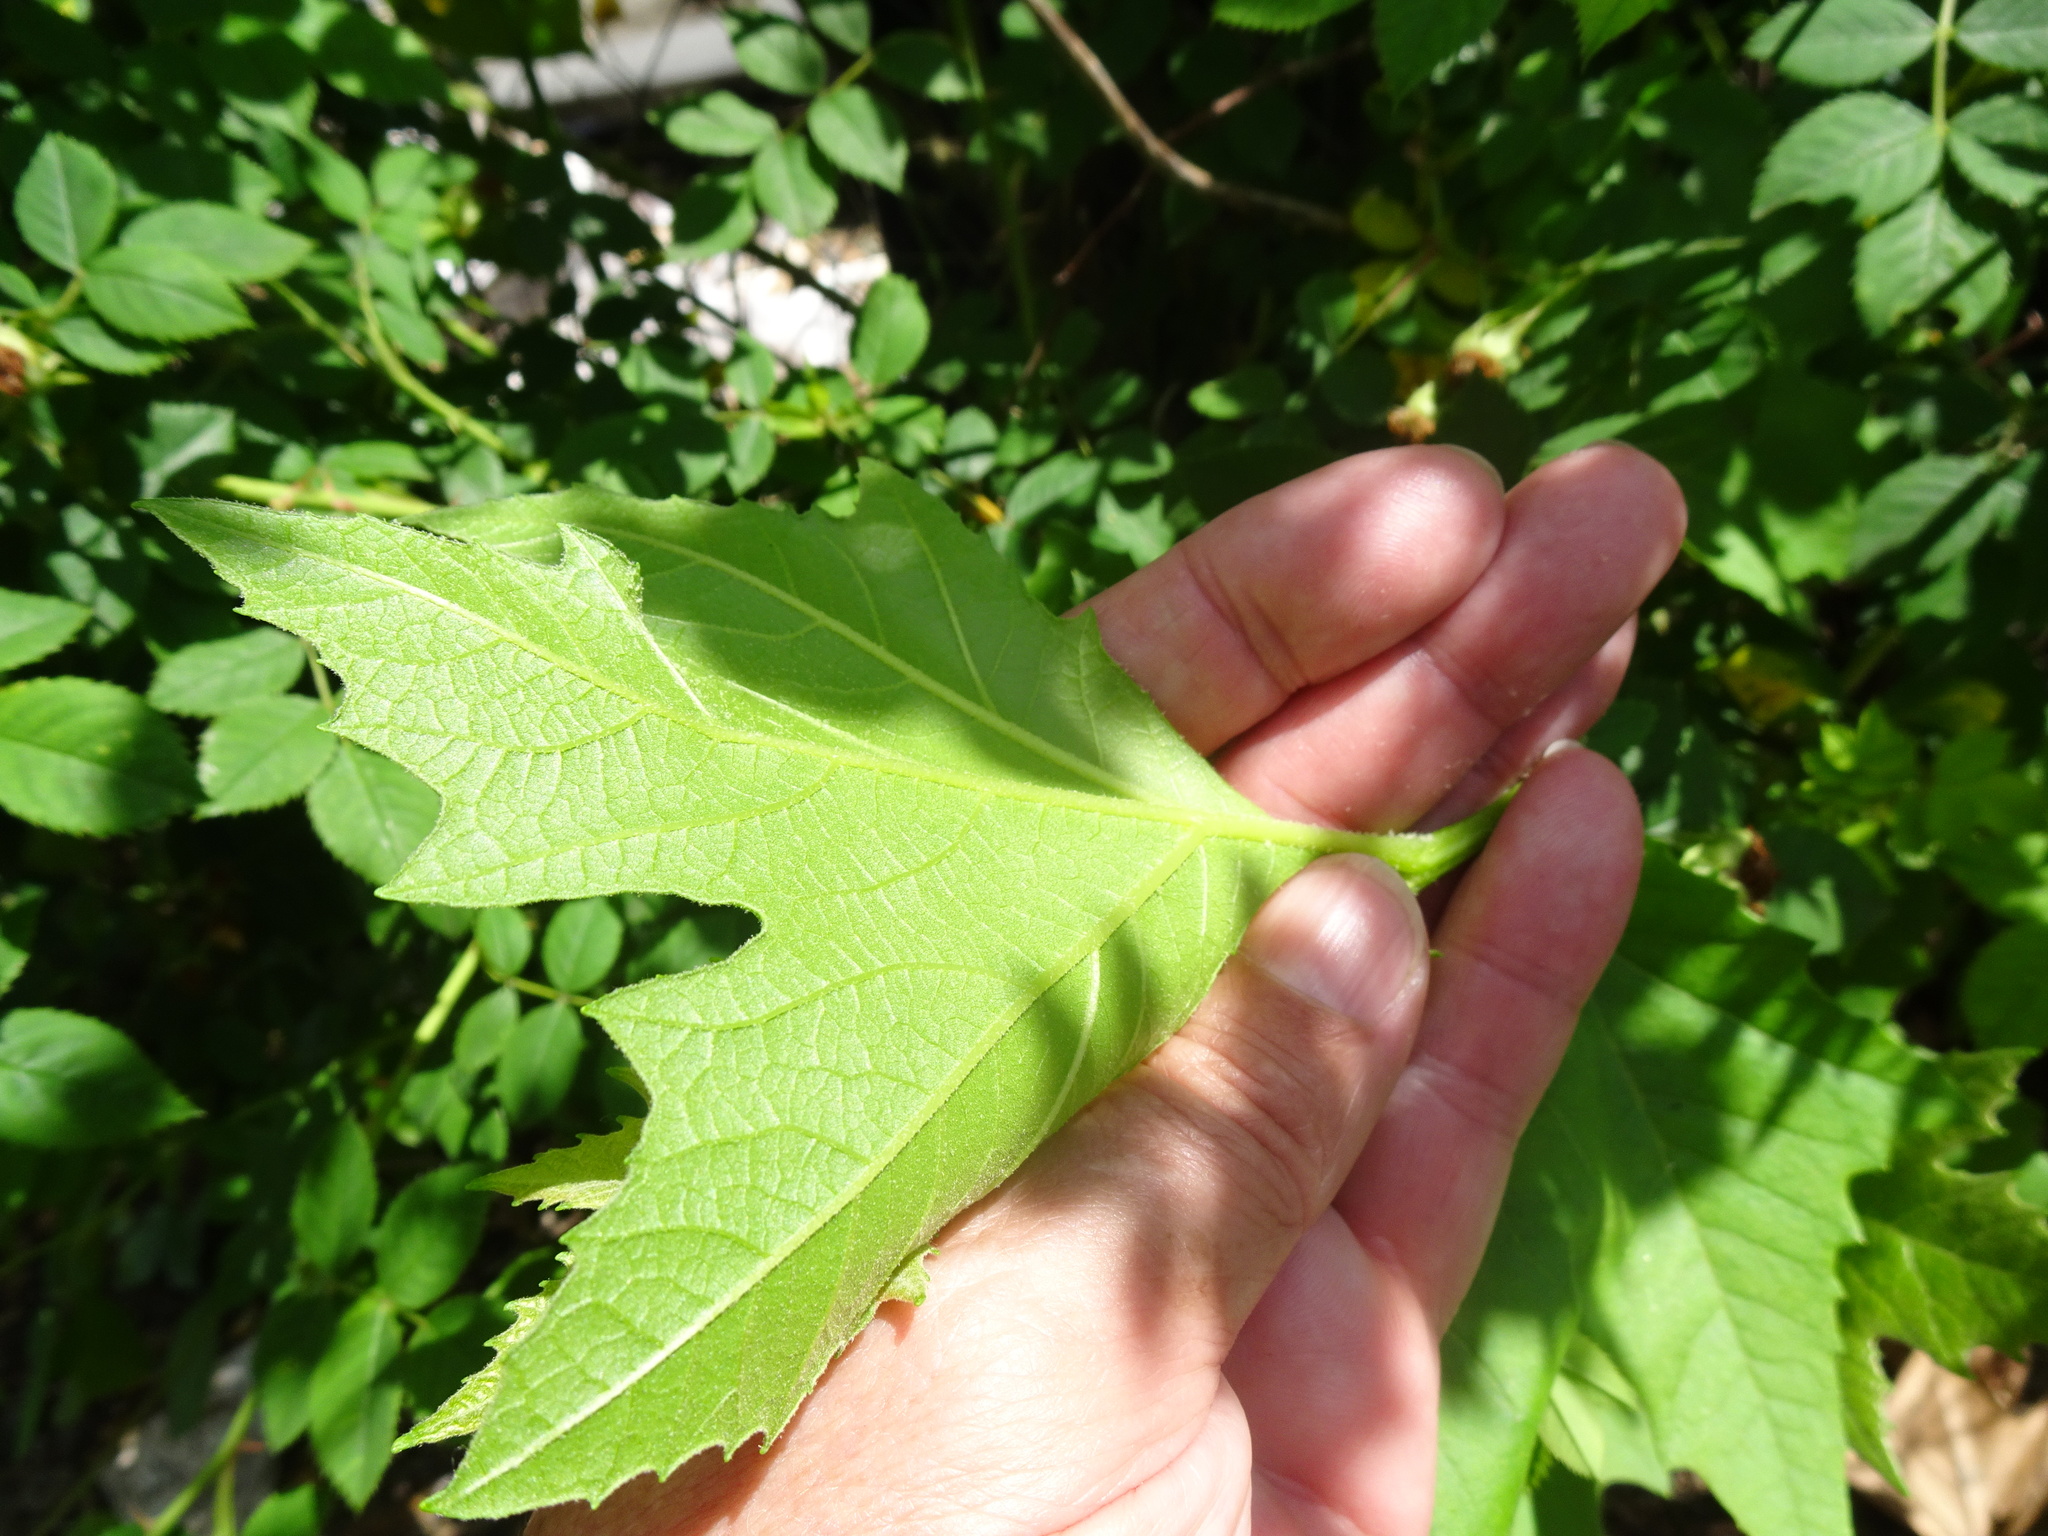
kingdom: Plantae
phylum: Tracheophyta
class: Magnoliopsida
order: Proteales
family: Platanaceae
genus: Platanus
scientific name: Platanus hispanica
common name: London plane
